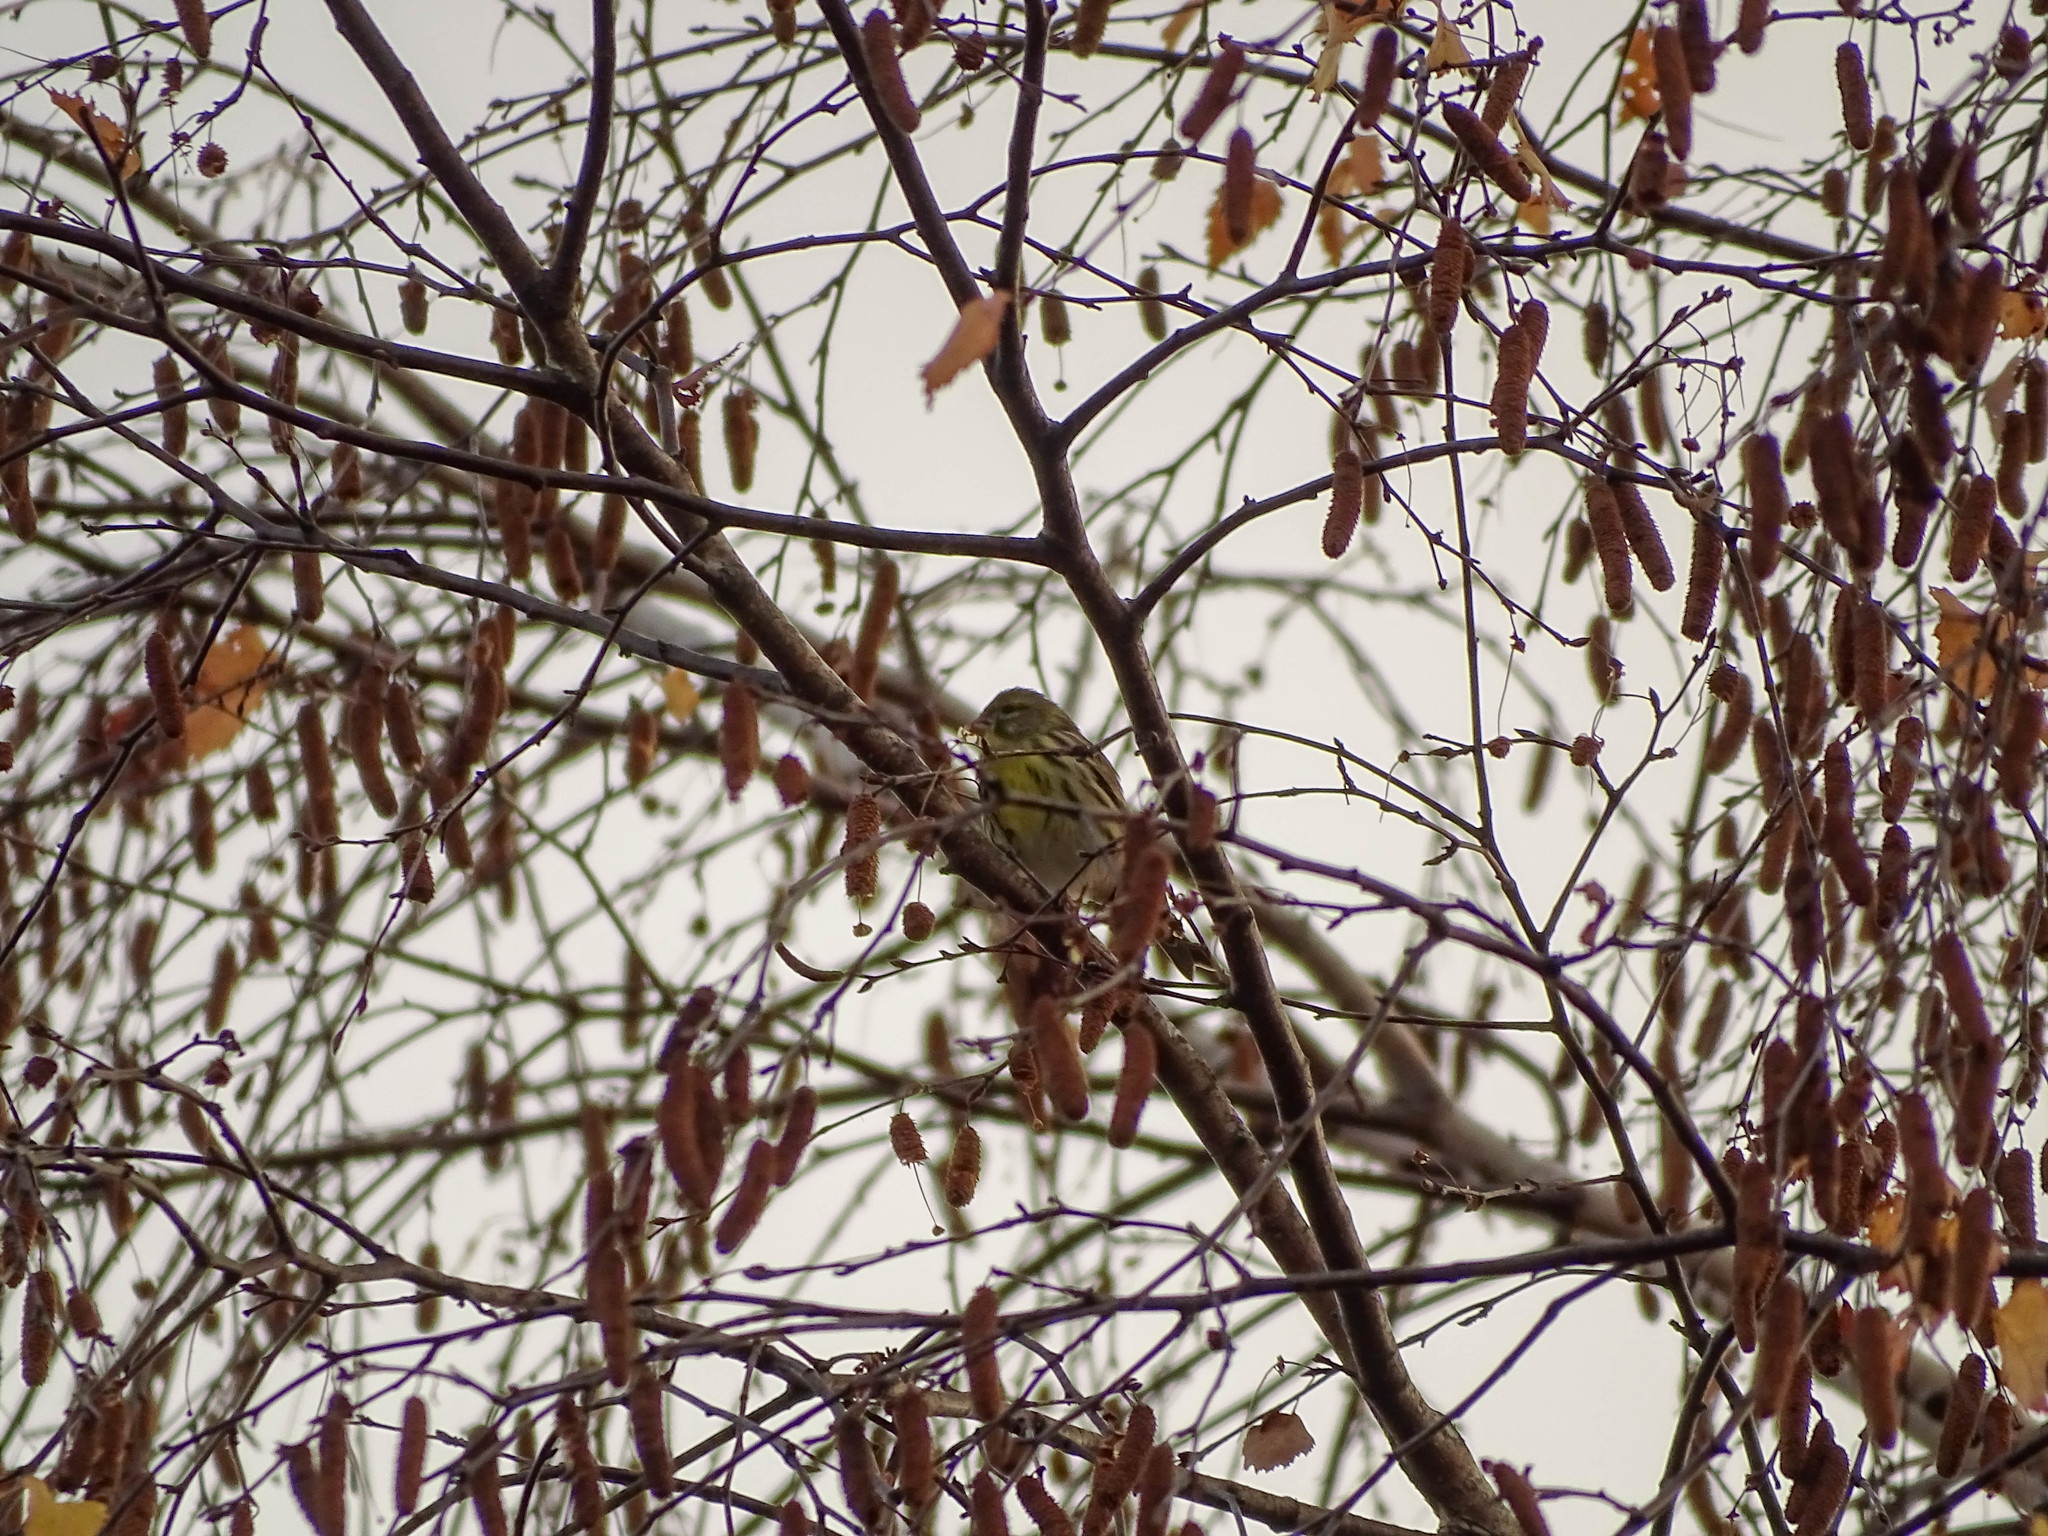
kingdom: Animalia
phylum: Chordata
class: Aves
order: Passeriformes
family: Fringillidae
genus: Serinus
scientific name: Serinus serinus
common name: European serin
